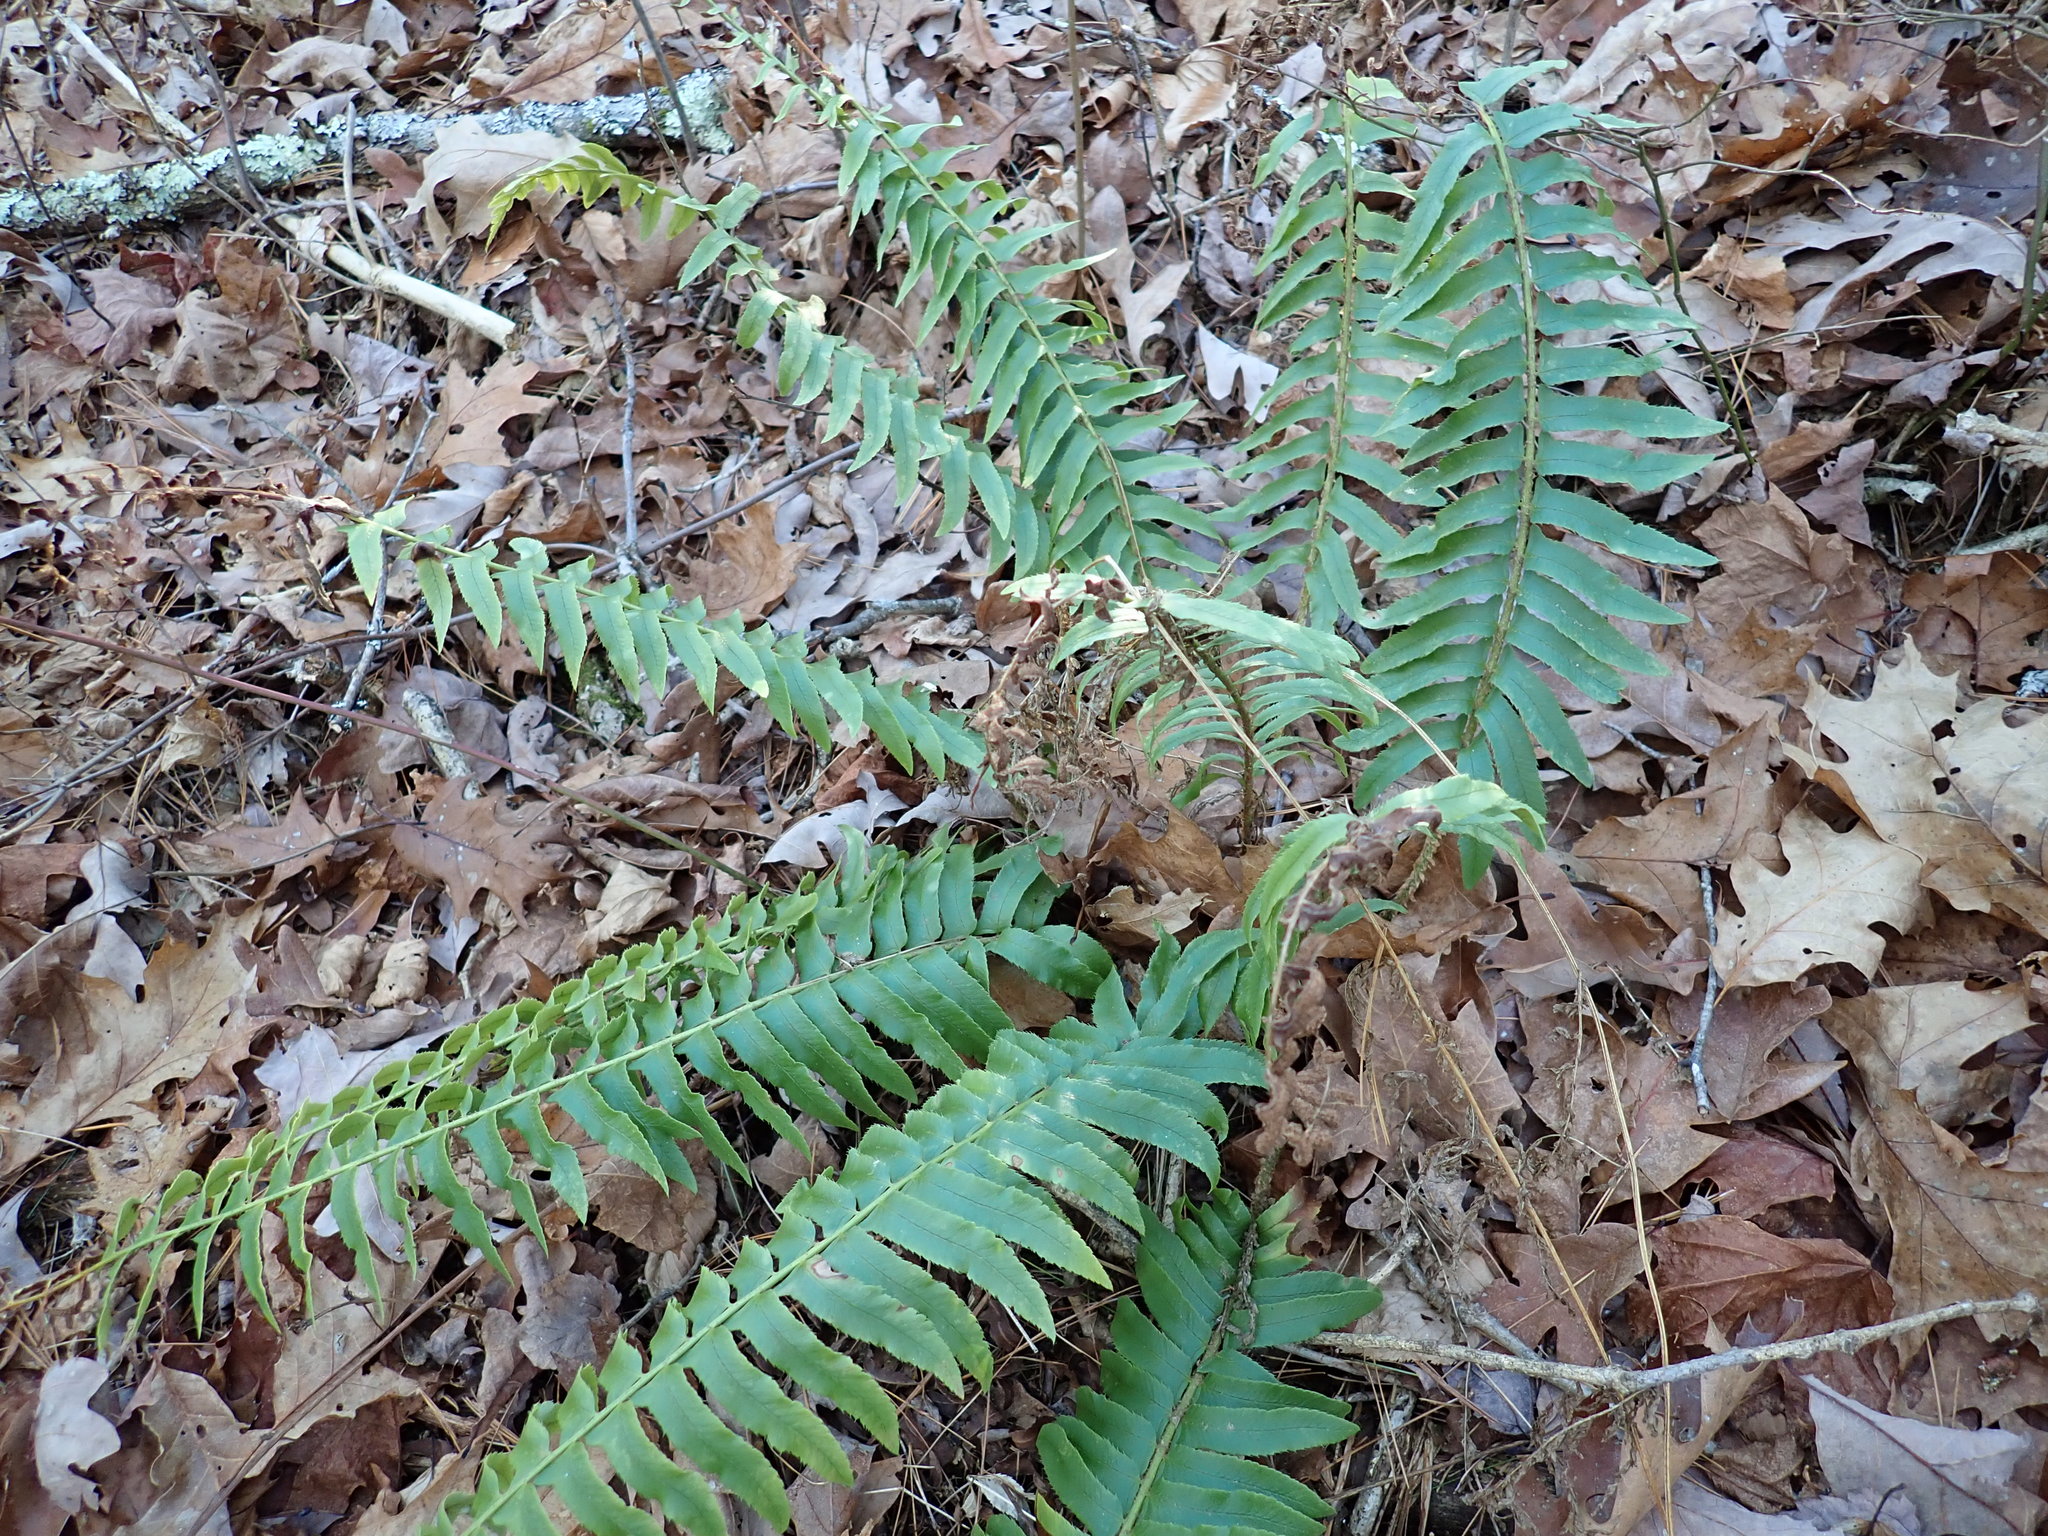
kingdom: Plantae
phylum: Tracheophyta
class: Polypodiopsida
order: Polypodiales
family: Dryopteridaceae
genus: Polystichum
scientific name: Polystichum acrostichoides
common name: Christmas fern
